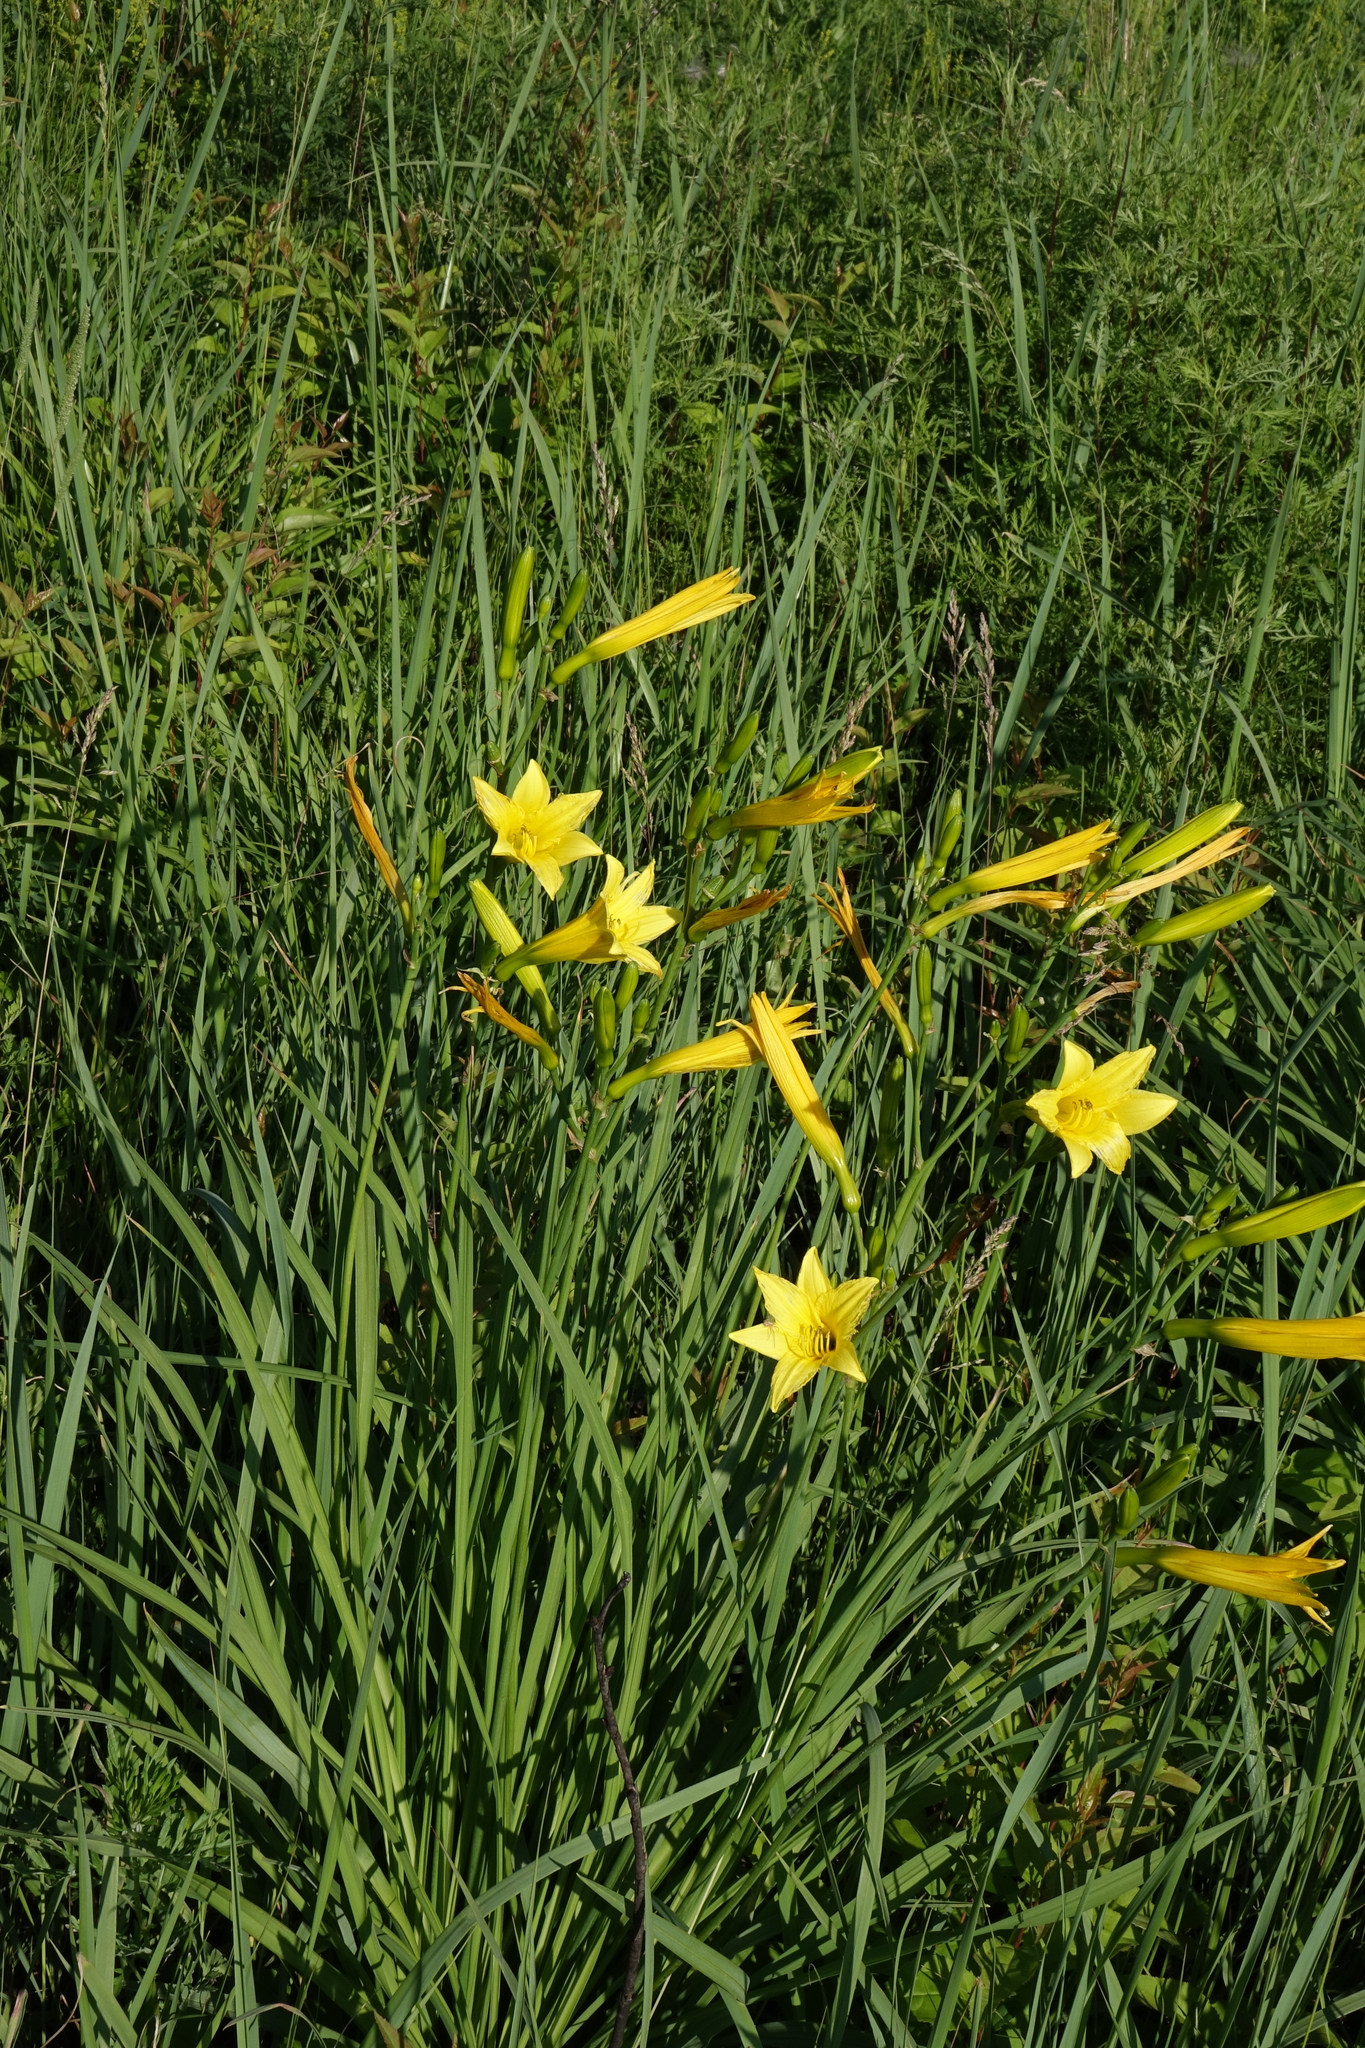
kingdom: Plantae
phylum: Tracheophyta
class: Liliopsida
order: Asparagales
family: Asphodelaceae
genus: Hemerocallis
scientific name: Hemerocallis minor
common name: Small daylily
